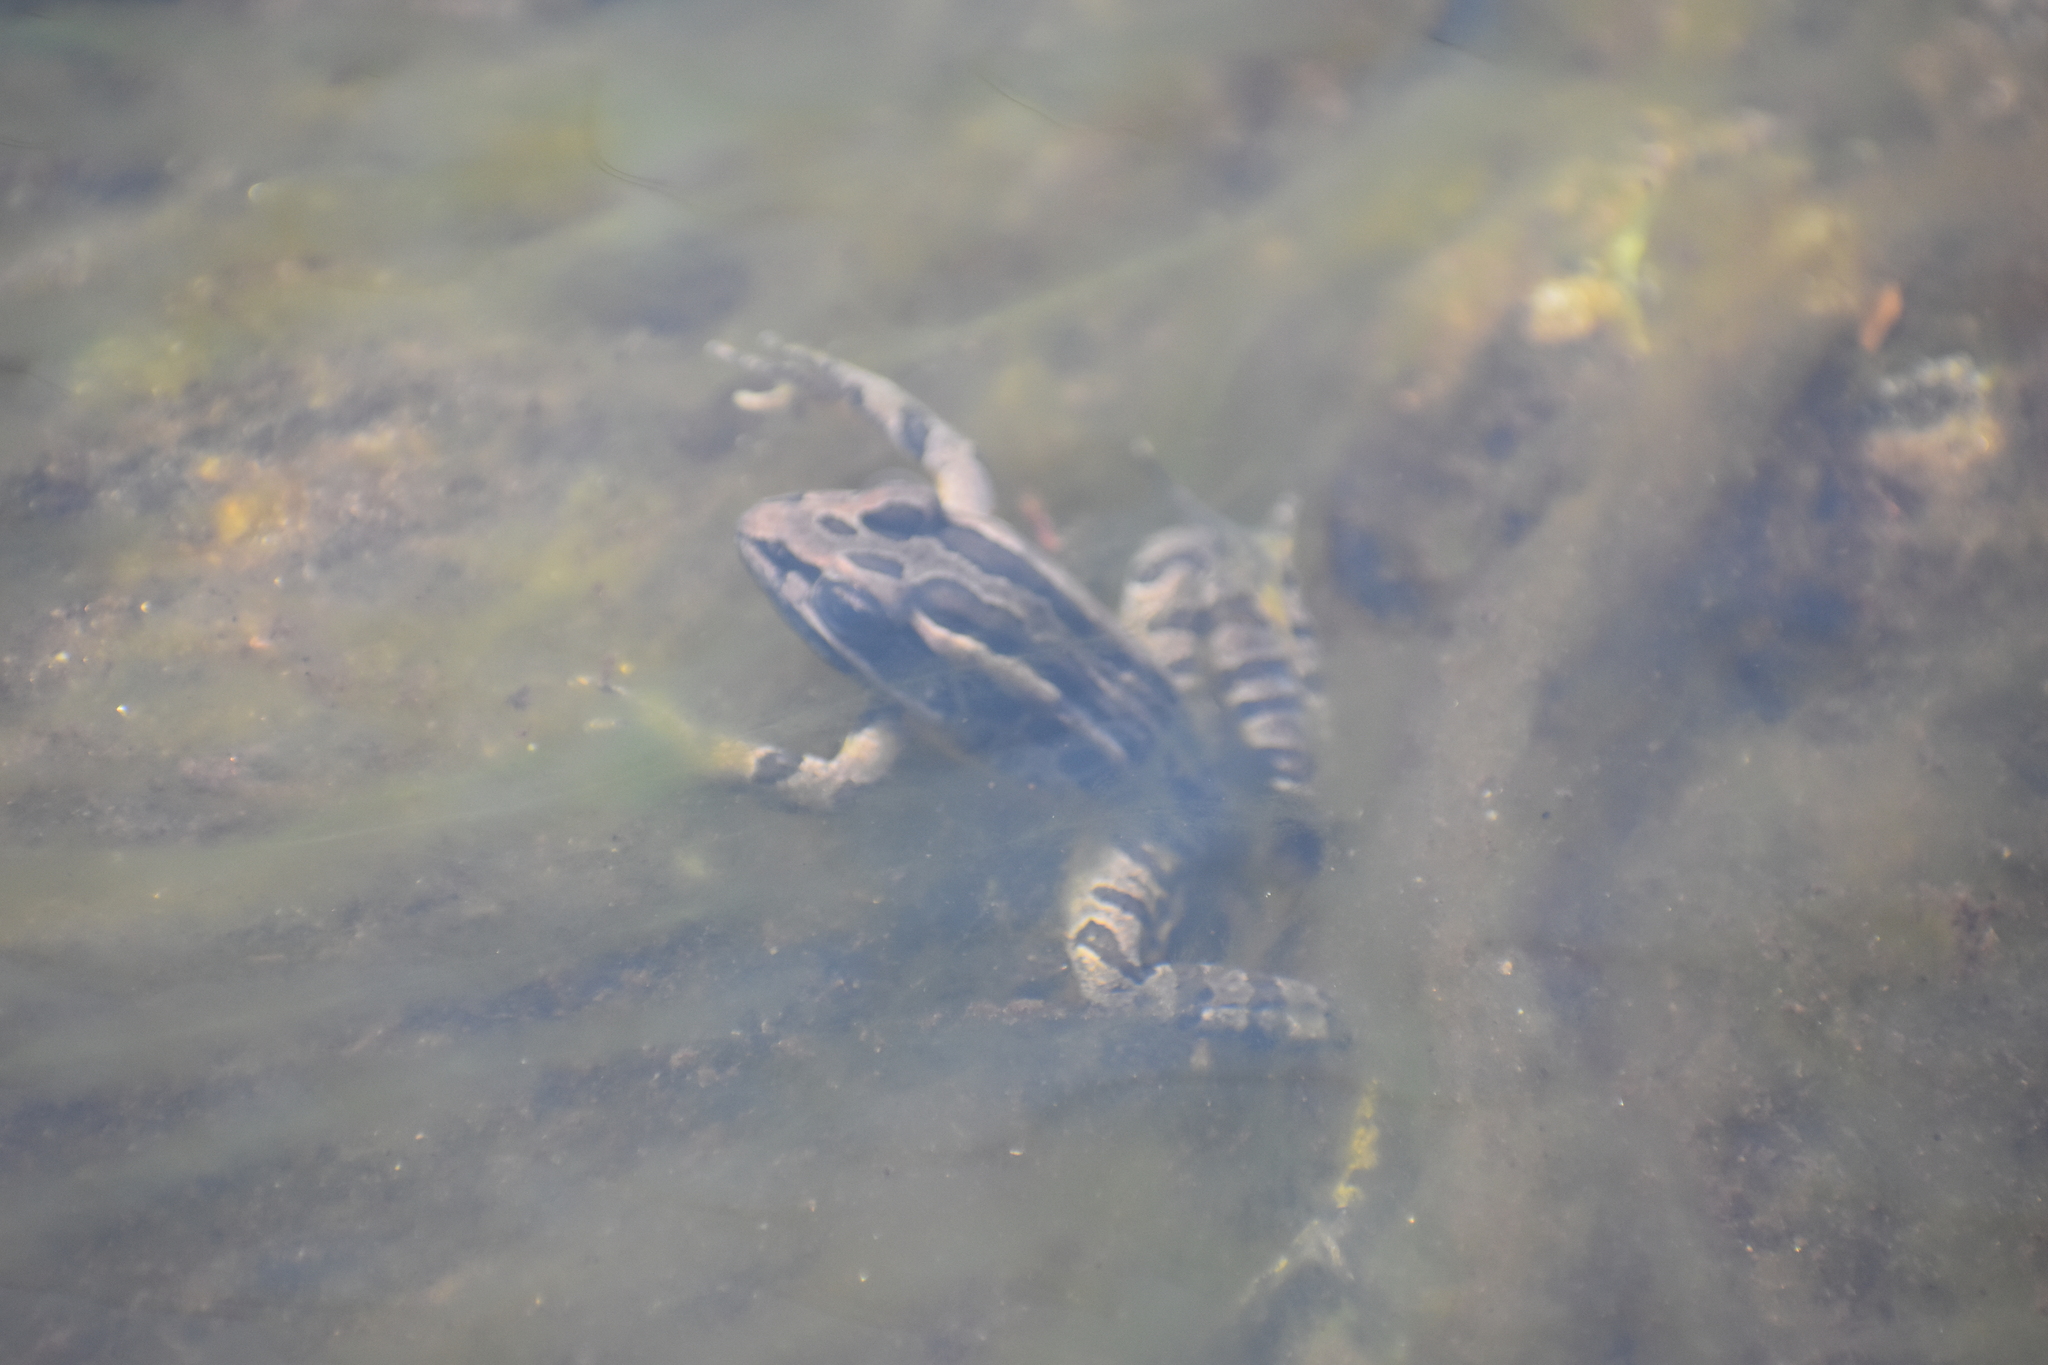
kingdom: Animalia
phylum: Chordata
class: Amphibia
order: Anura
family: Ranidae
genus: Lithobates
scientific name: Lithobates palustris
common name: Pickerel frog
